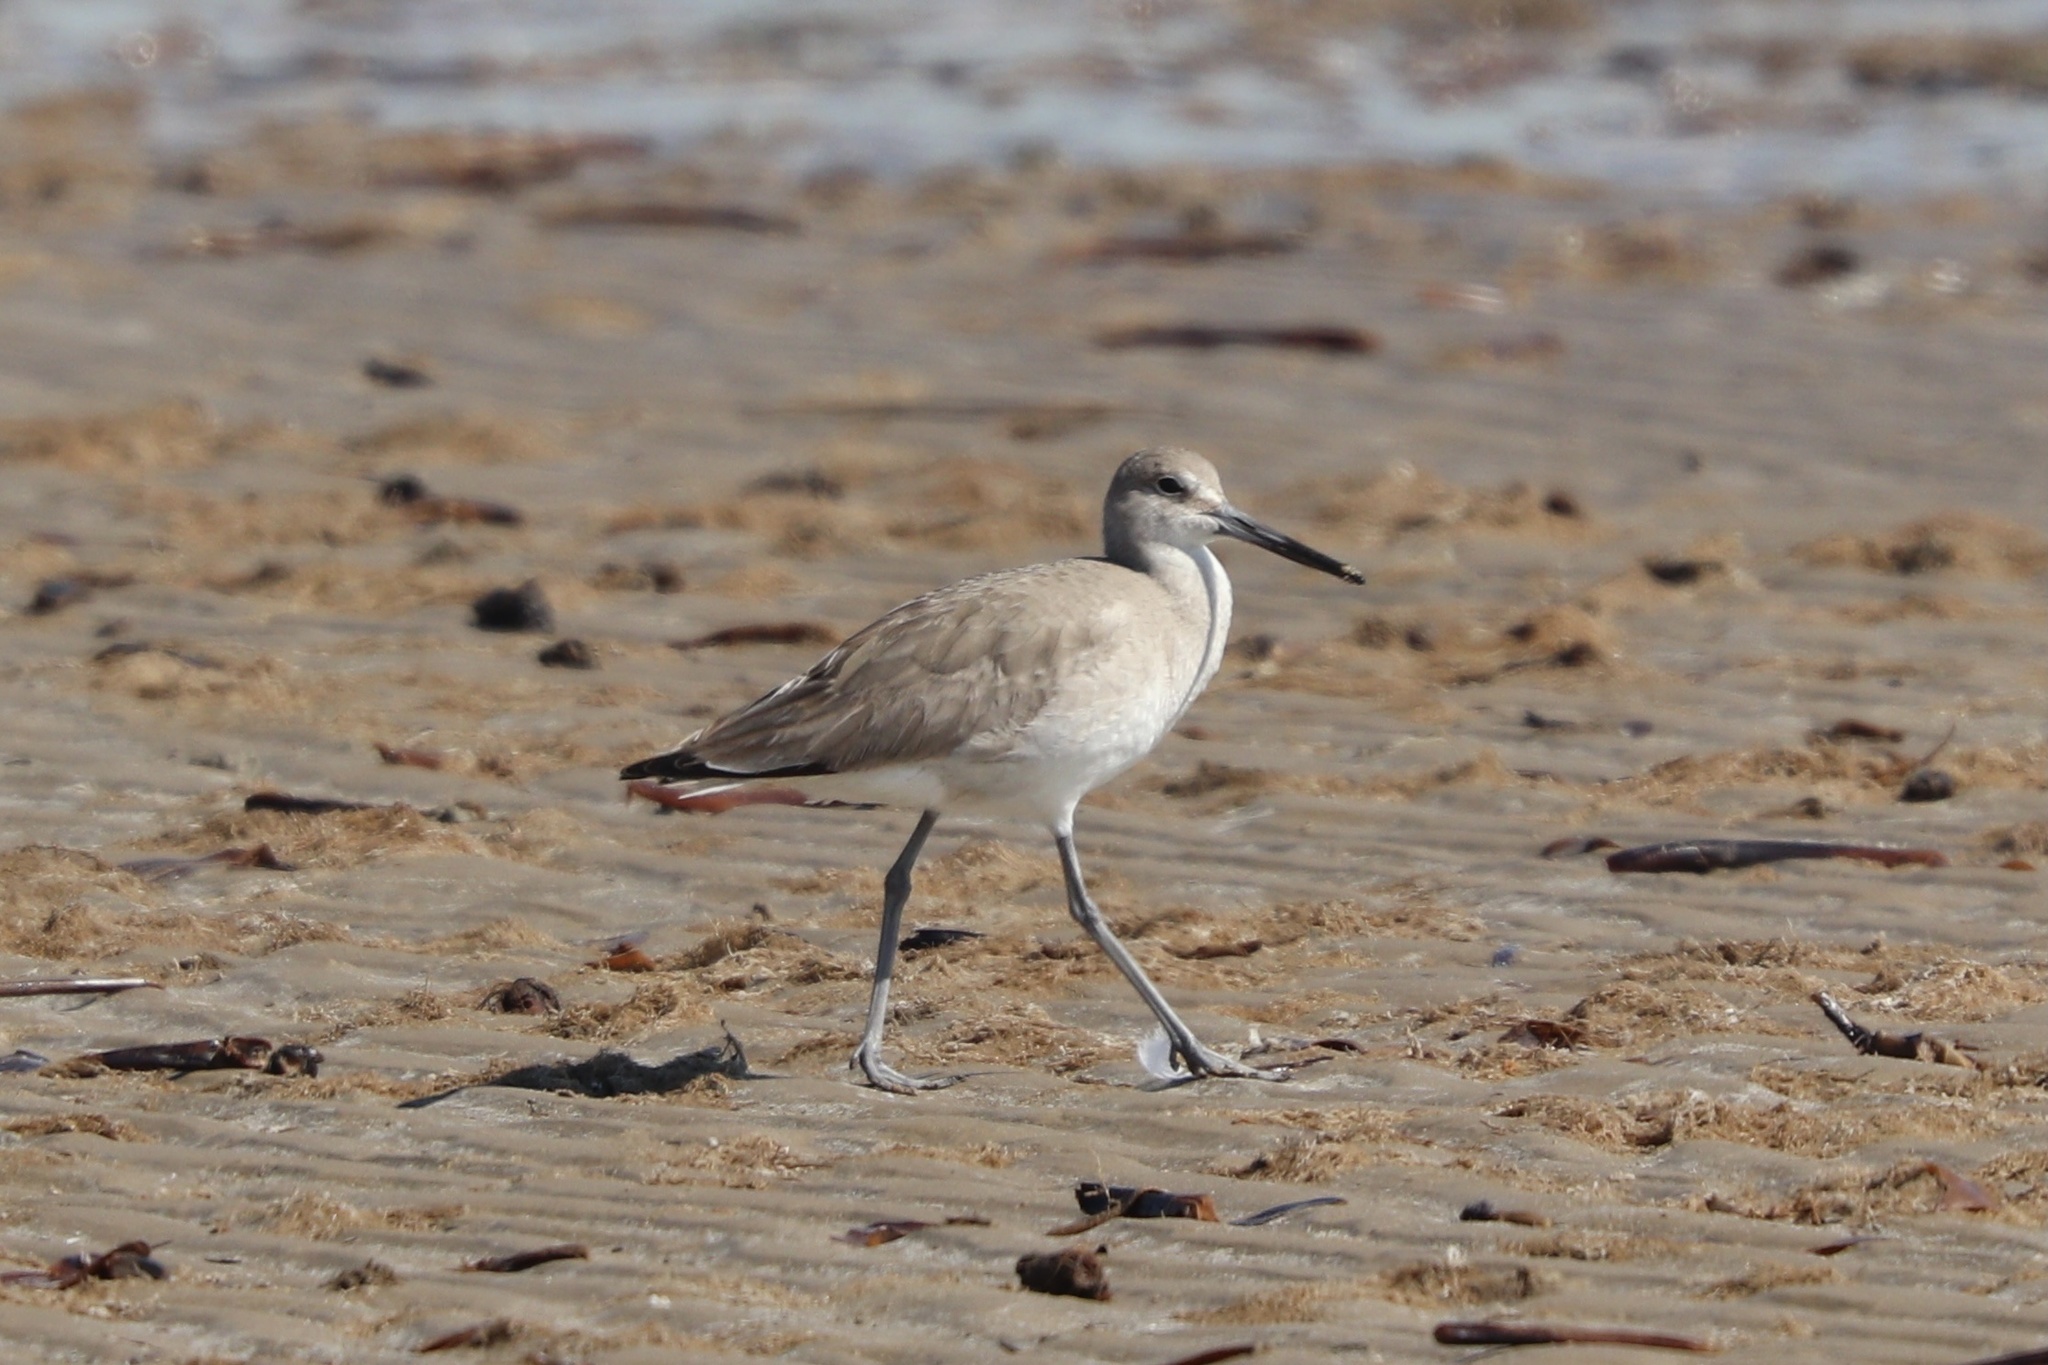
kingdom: Animalia
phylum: Chordata
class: Aves
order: Charadriiformes
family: Scolopacidae
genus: Tringa
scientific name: Tringa semipalmata
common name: Willet
